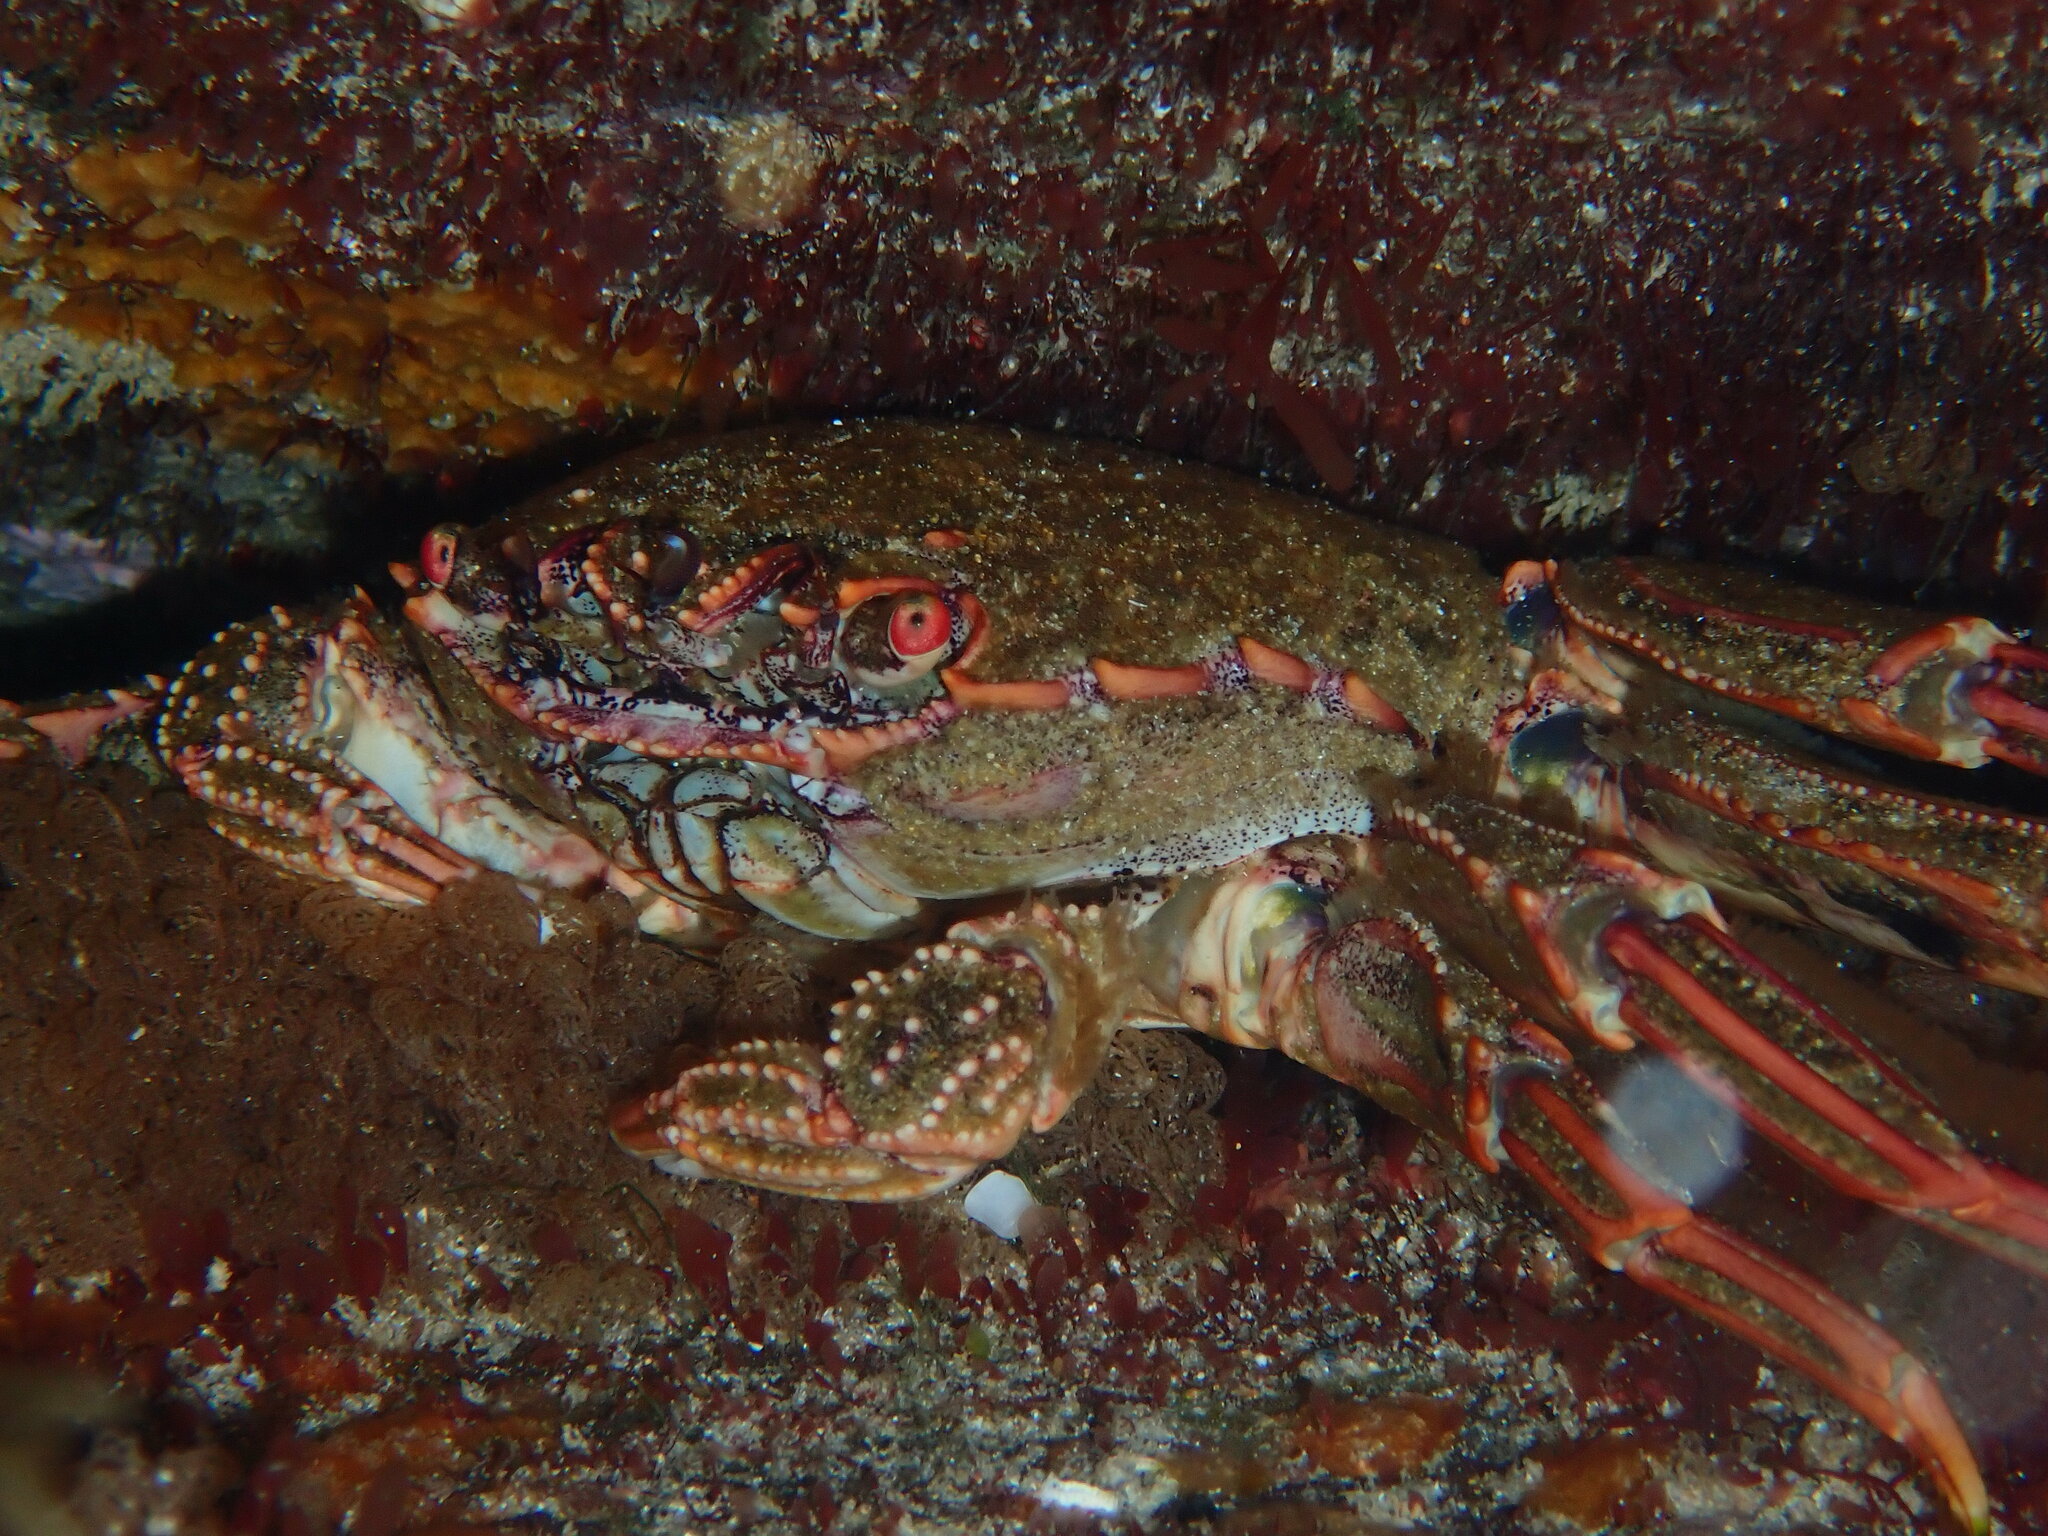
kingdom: Animalia
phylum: Arthropoda
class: Malacostraca
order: Decapoda
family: Plagusiidae
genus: Guinusia
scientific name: Guinusia chabrus
